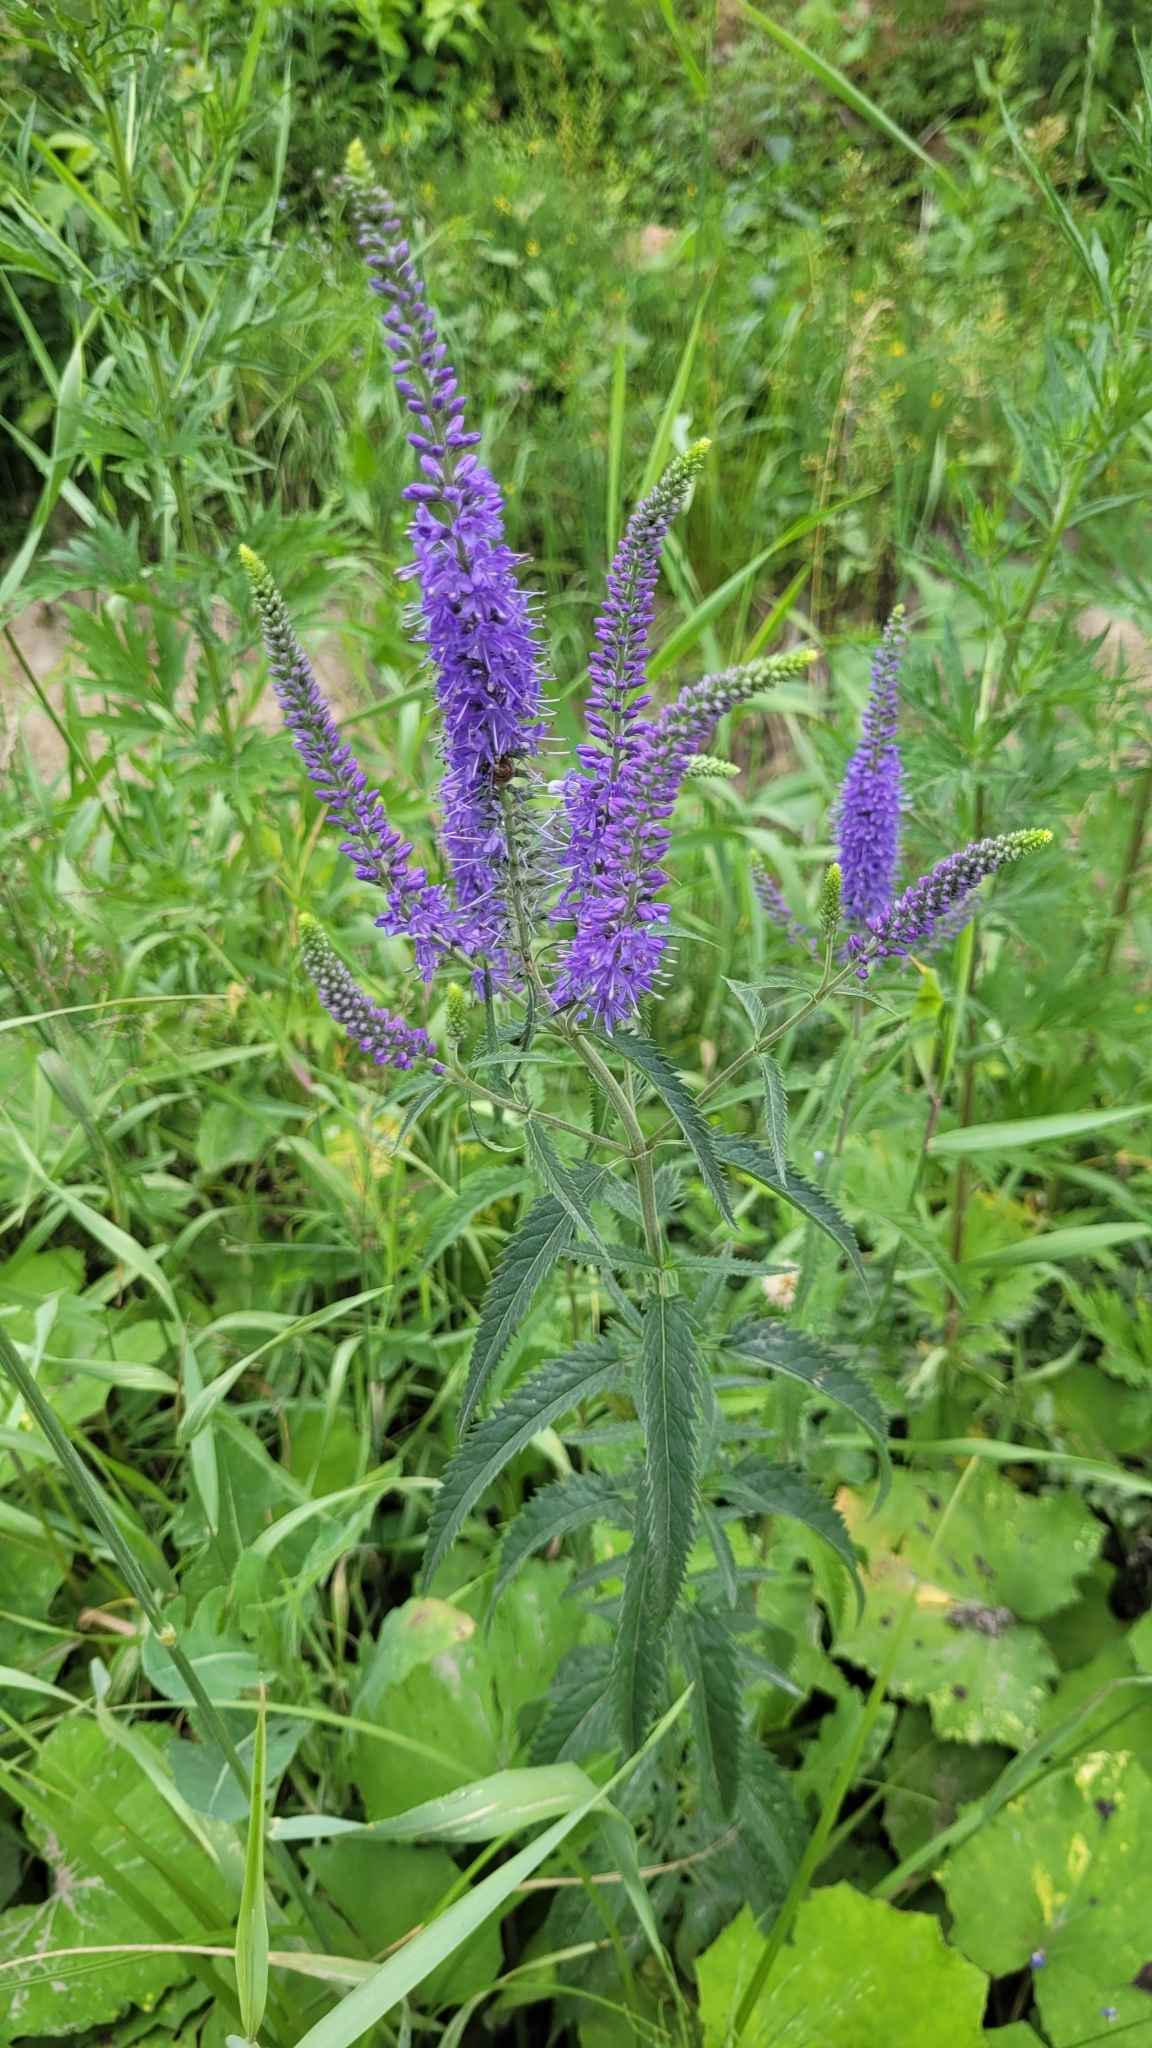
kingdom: Plantae
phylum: Tracheophyta
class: Magnoliopsida
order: Lamiales
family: Plantaginaceae
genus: Veronica
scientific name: Veronica longifolia
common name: Garden speedwell
